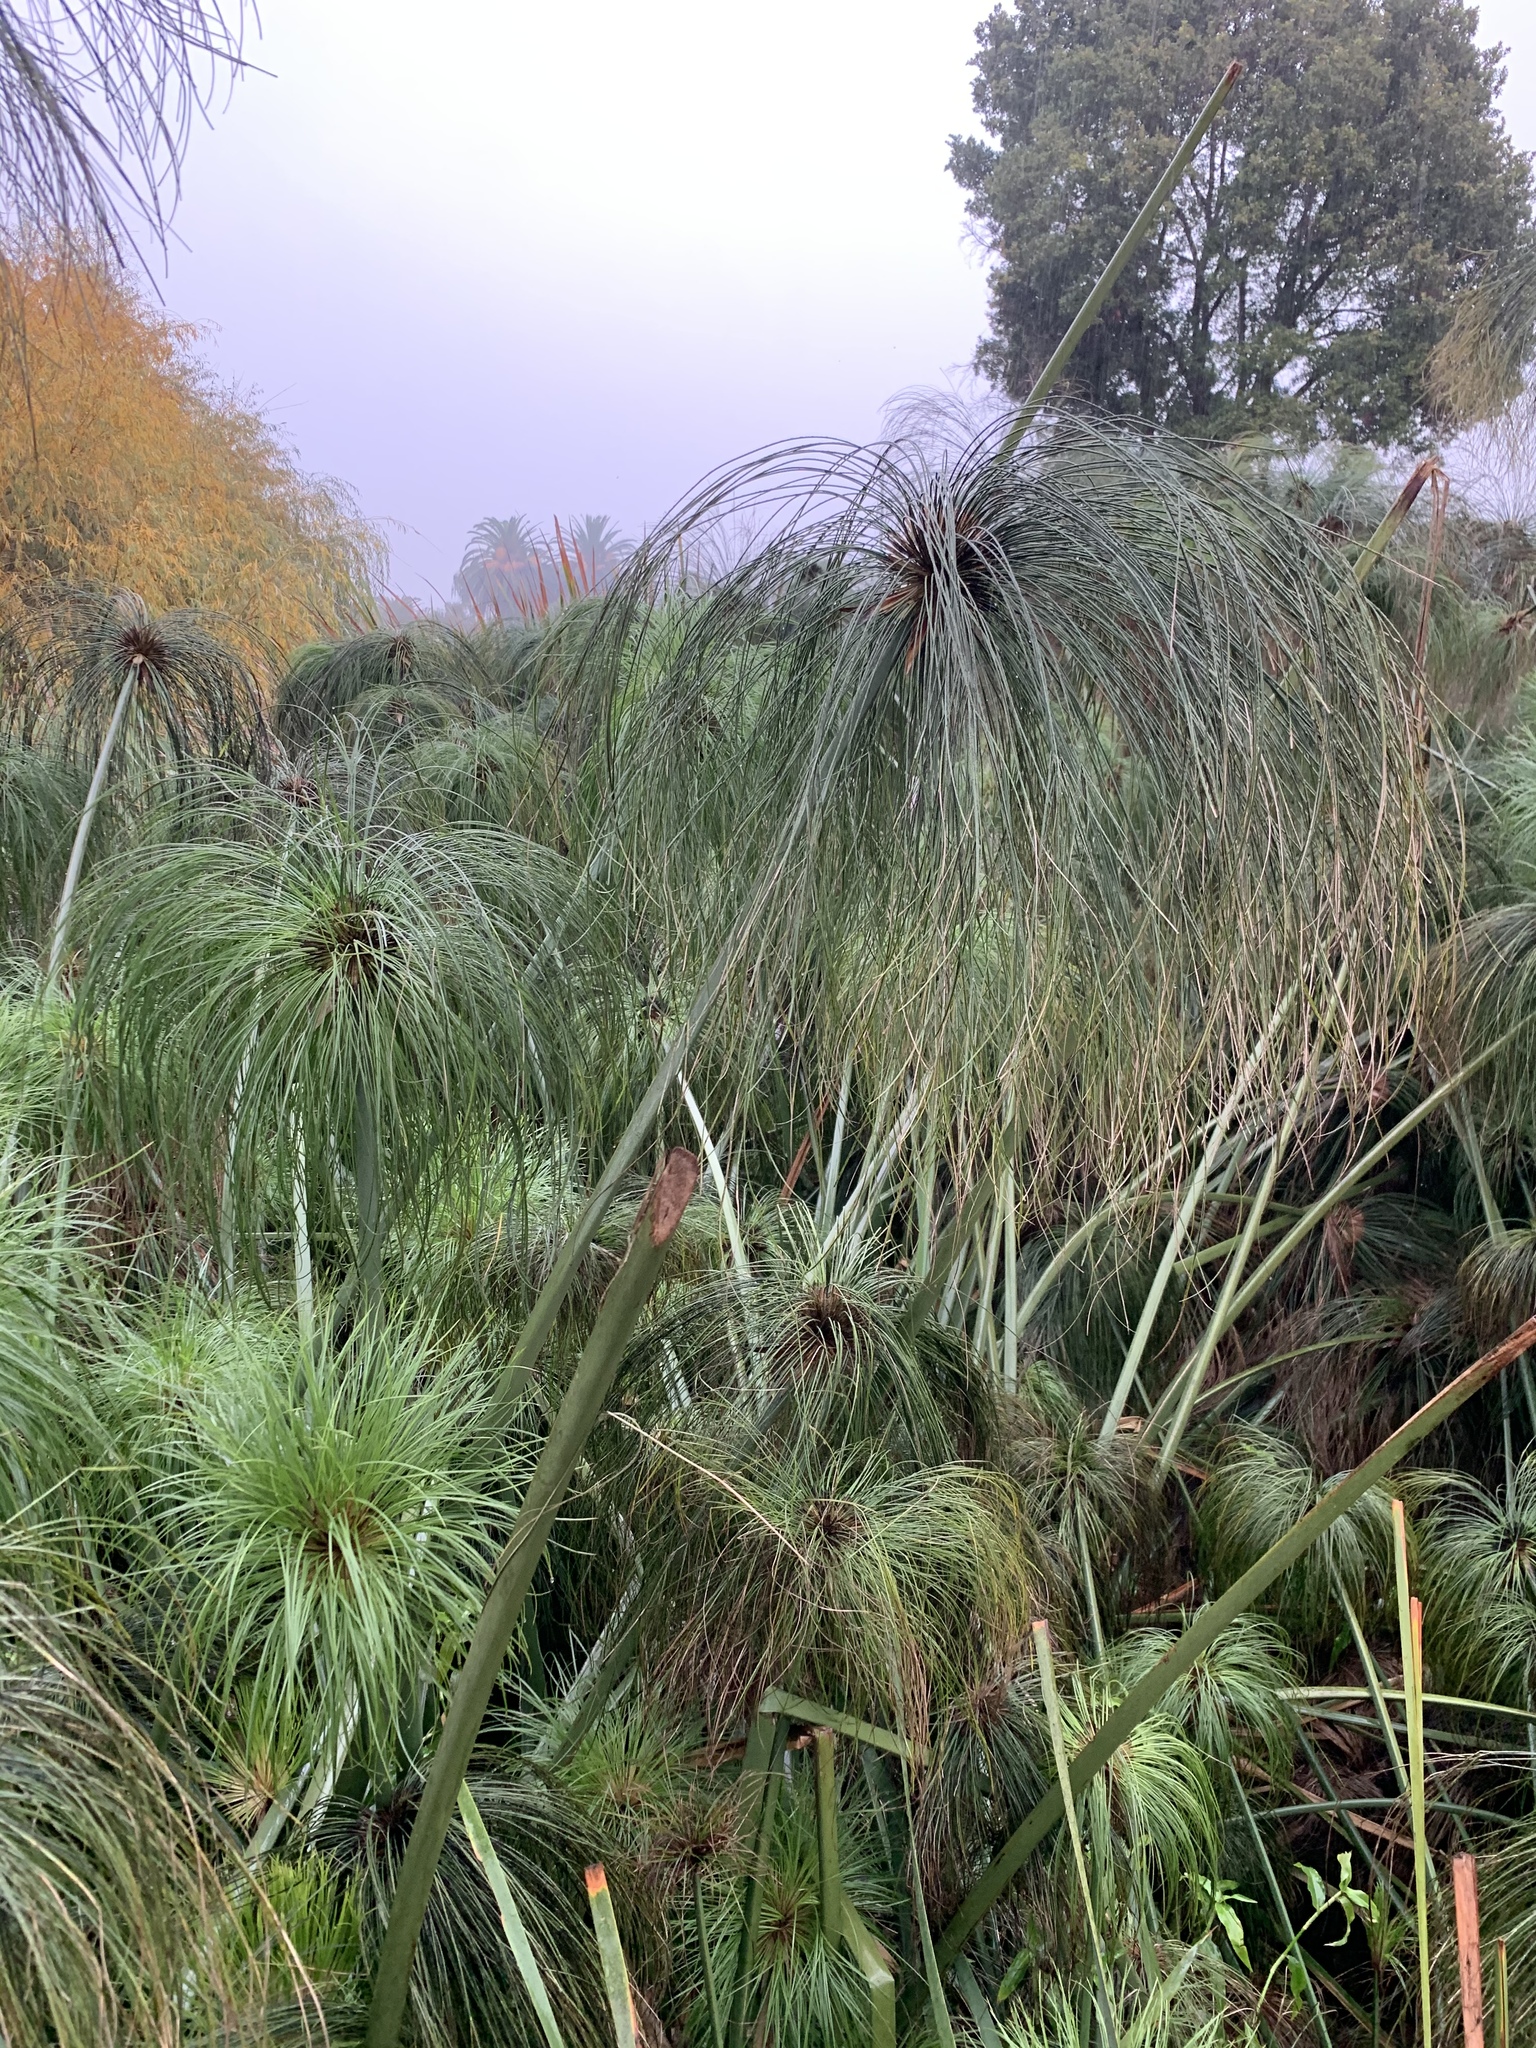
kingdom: Plantae
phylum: Tracheophyta
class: Liliopsida
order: Poales
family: Cyperaceae
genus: Cyperus
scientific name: Cyperus papyrus
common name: Papyrus
